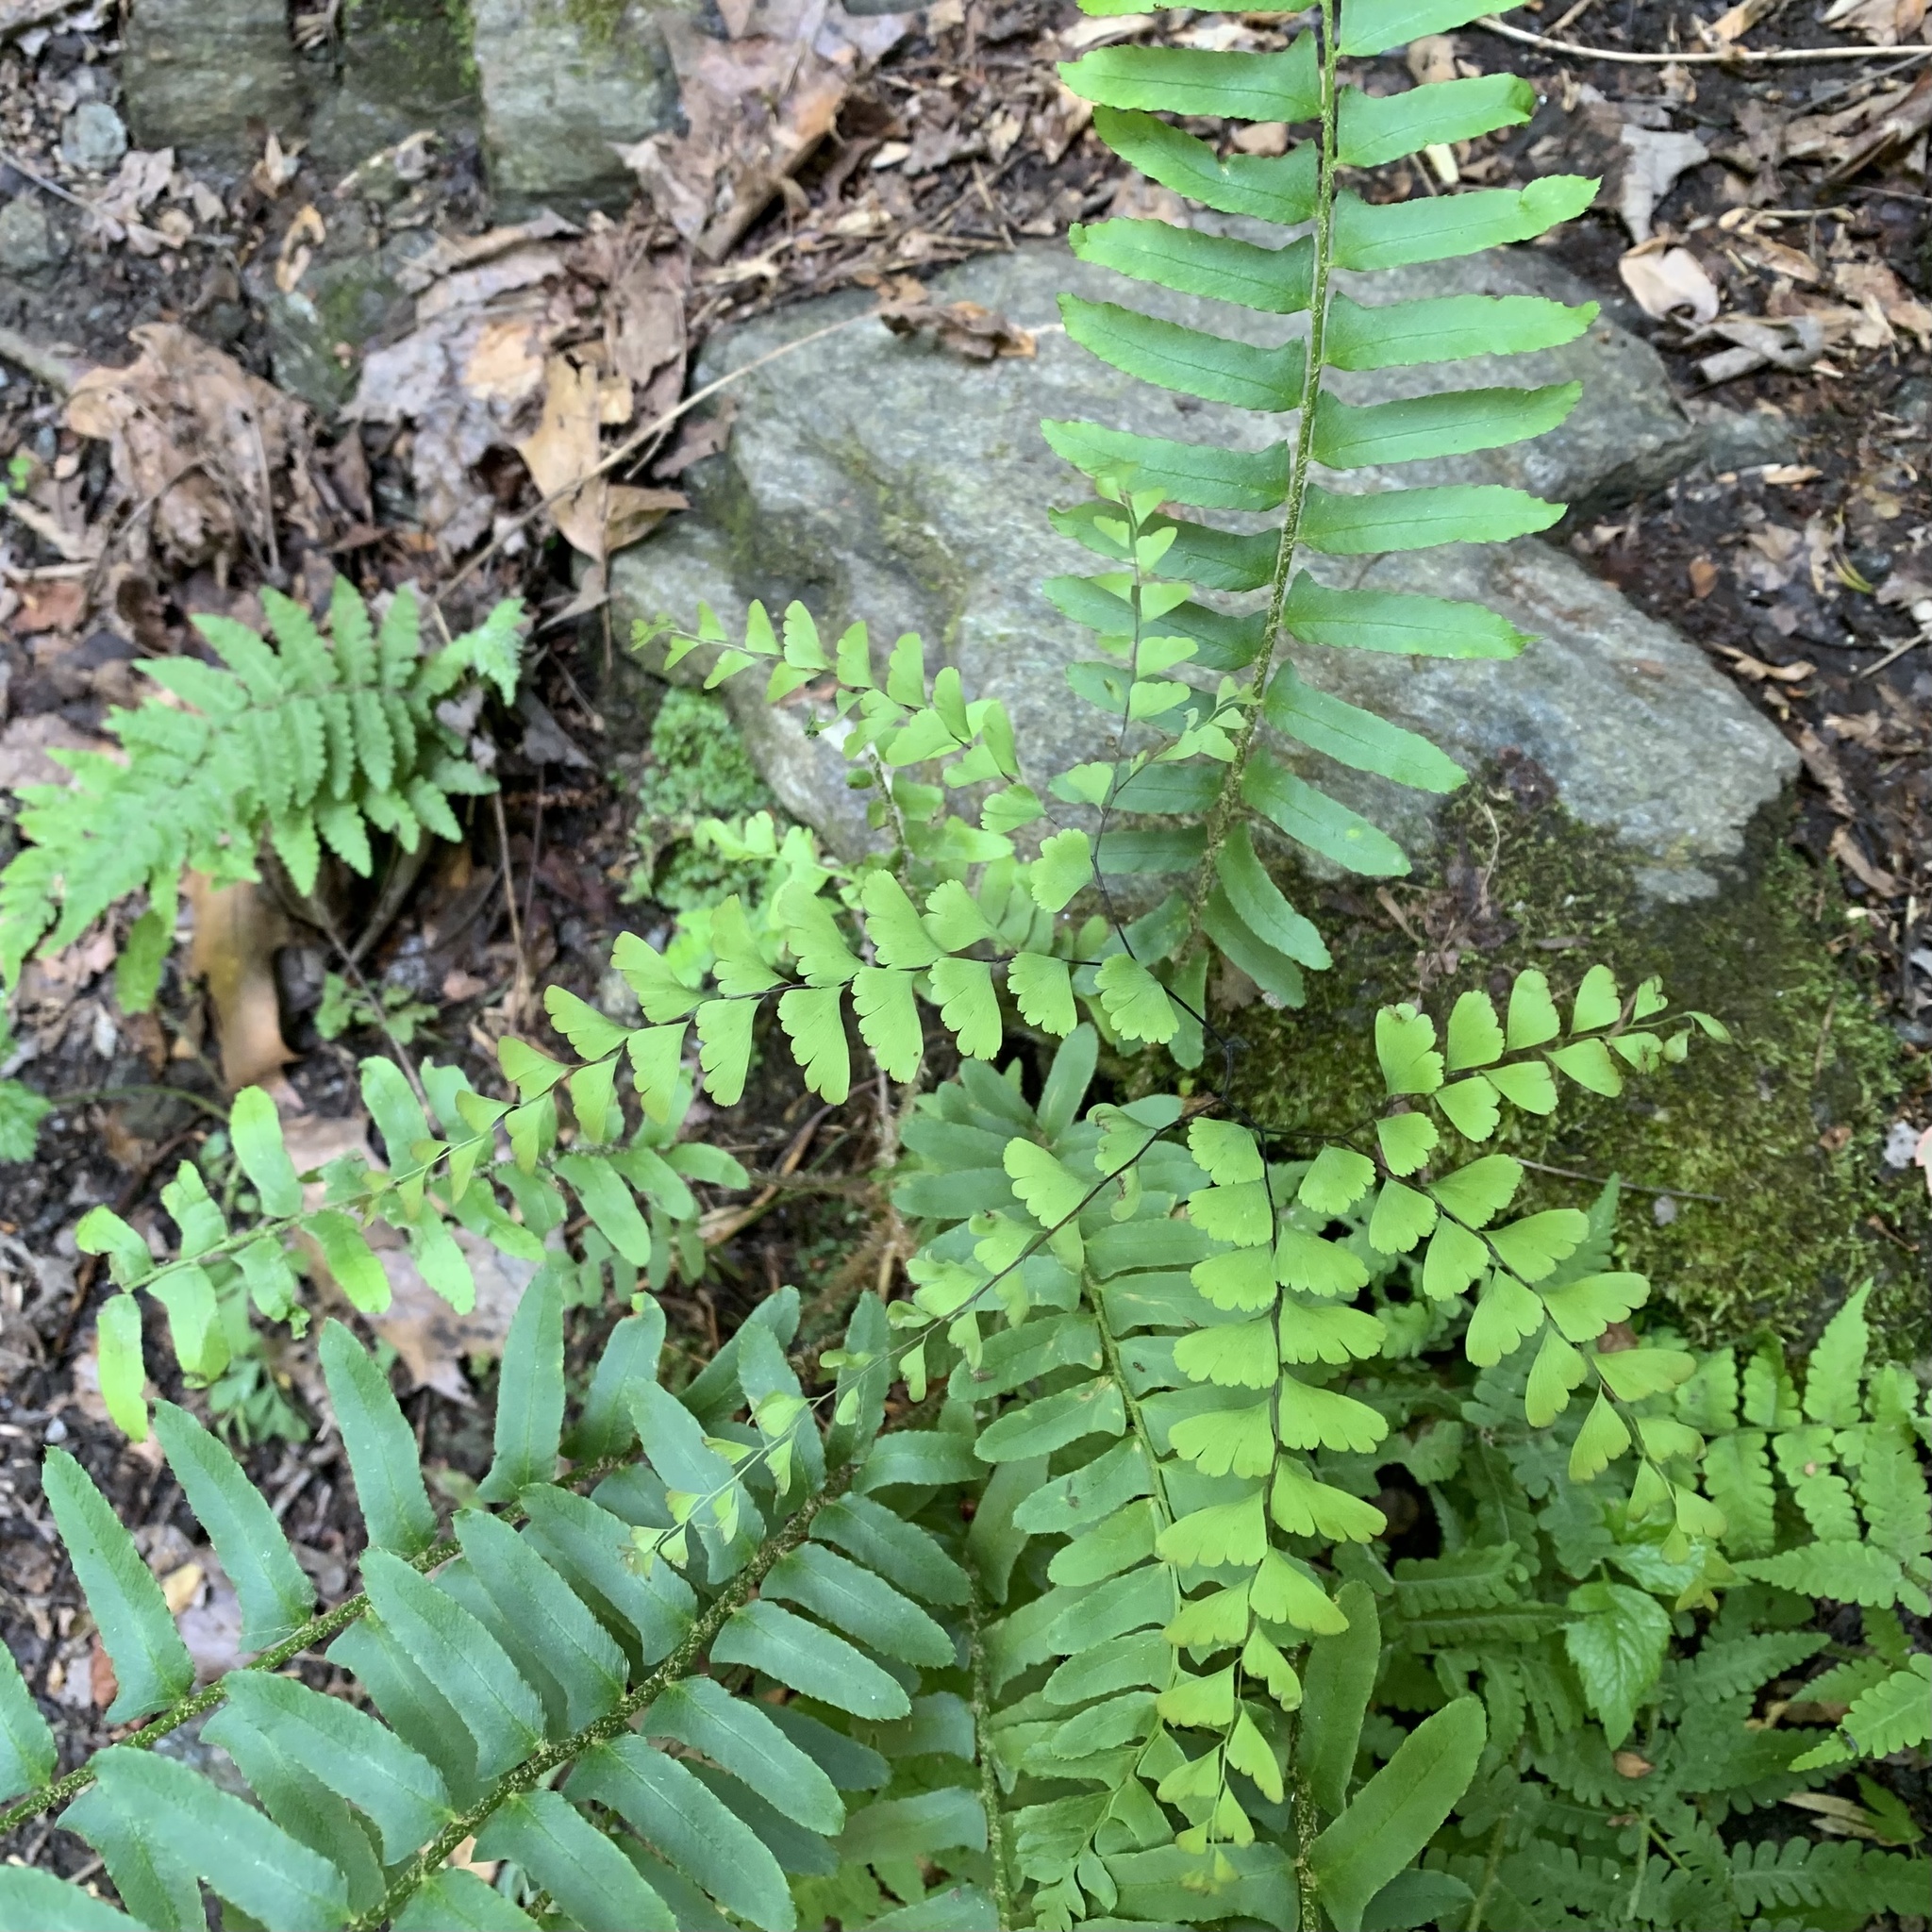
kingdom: Plantae
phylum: Tracheophyta
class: Polypodiopsida
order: Polypodiales
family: Pteridaceae
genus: Adiantum
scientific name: Adiantum pedatum
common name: Five-finger fern
